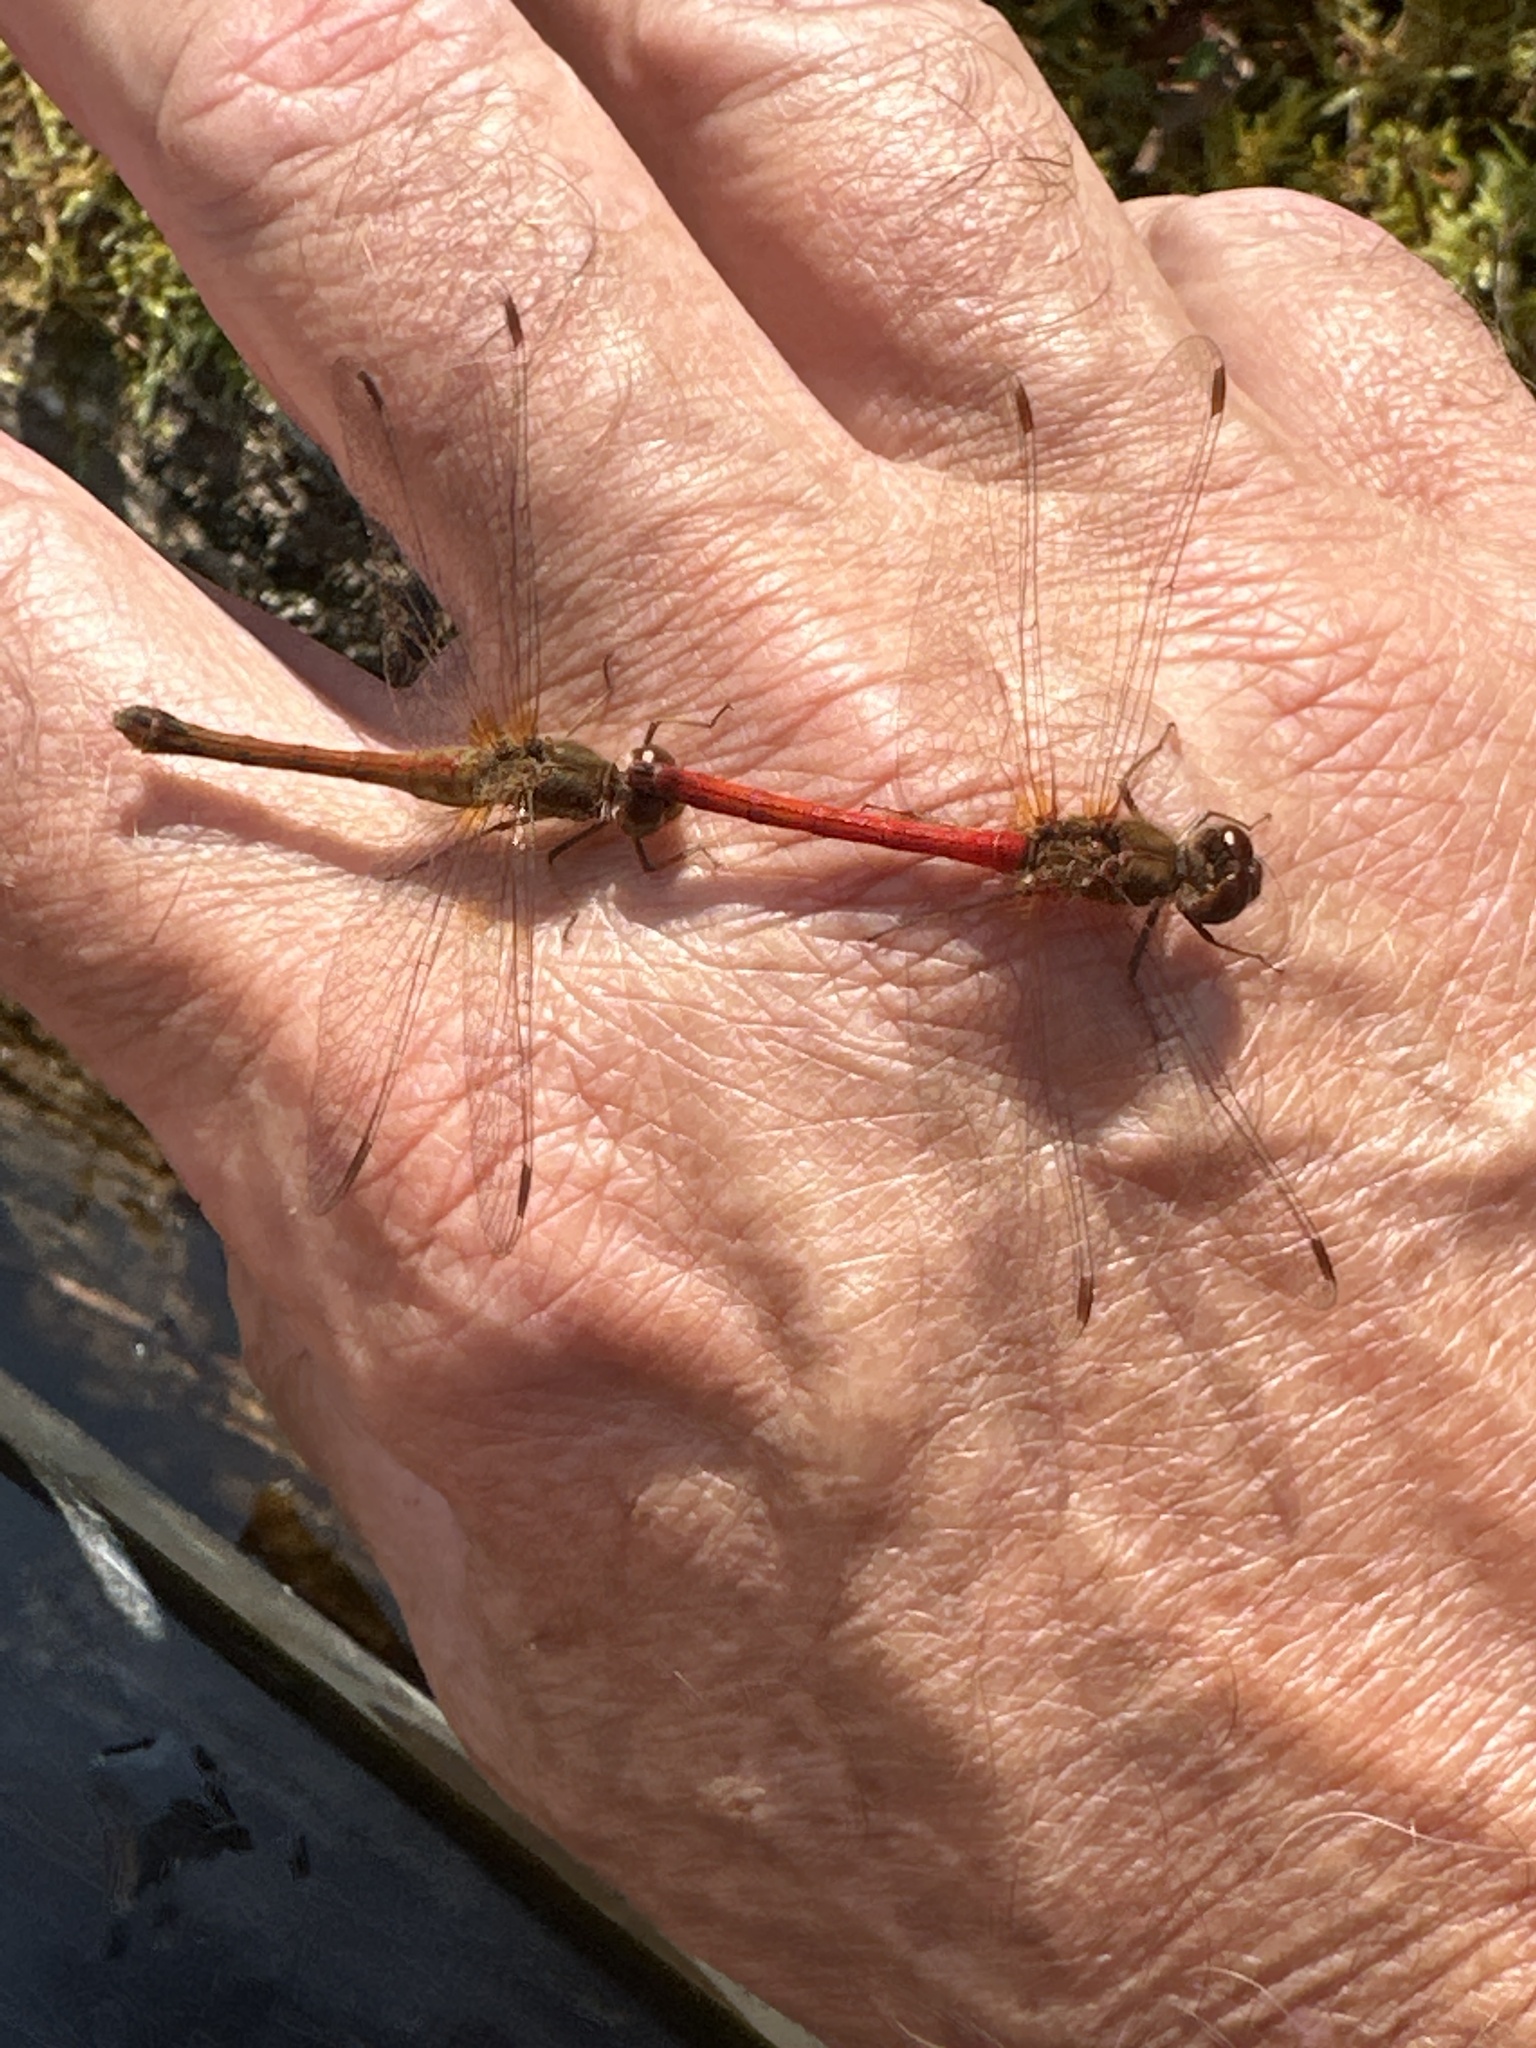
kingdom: Animalia
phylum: Arthropoda
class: Insecta
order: Odonata
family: Libellulidae
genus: Sympetrum
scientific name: Sympetrum vicinum
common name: Autumn meadowhawk
